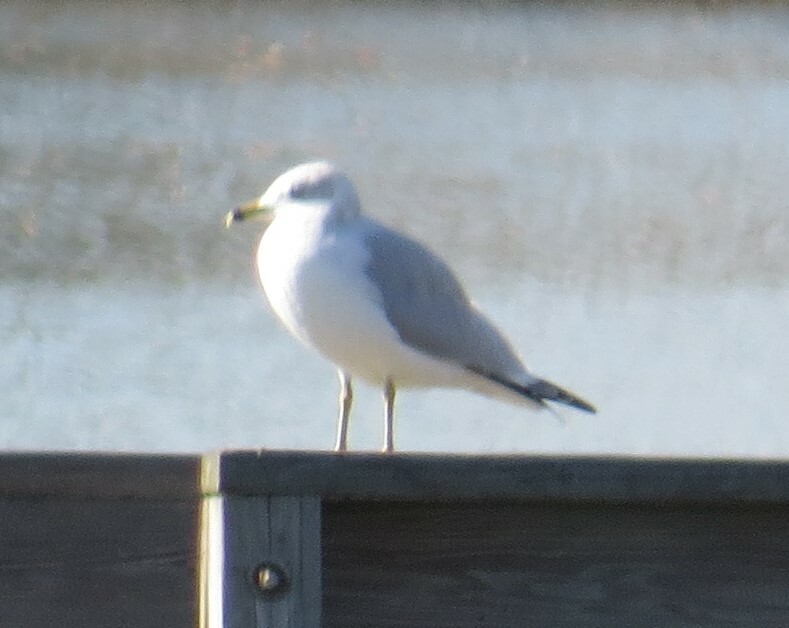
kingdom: Animalia
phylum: Chordata
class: Aves
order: Charadriiformes
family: Laridae
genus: Larus
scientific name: Larus delawarensis
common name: Ring-billed gull
